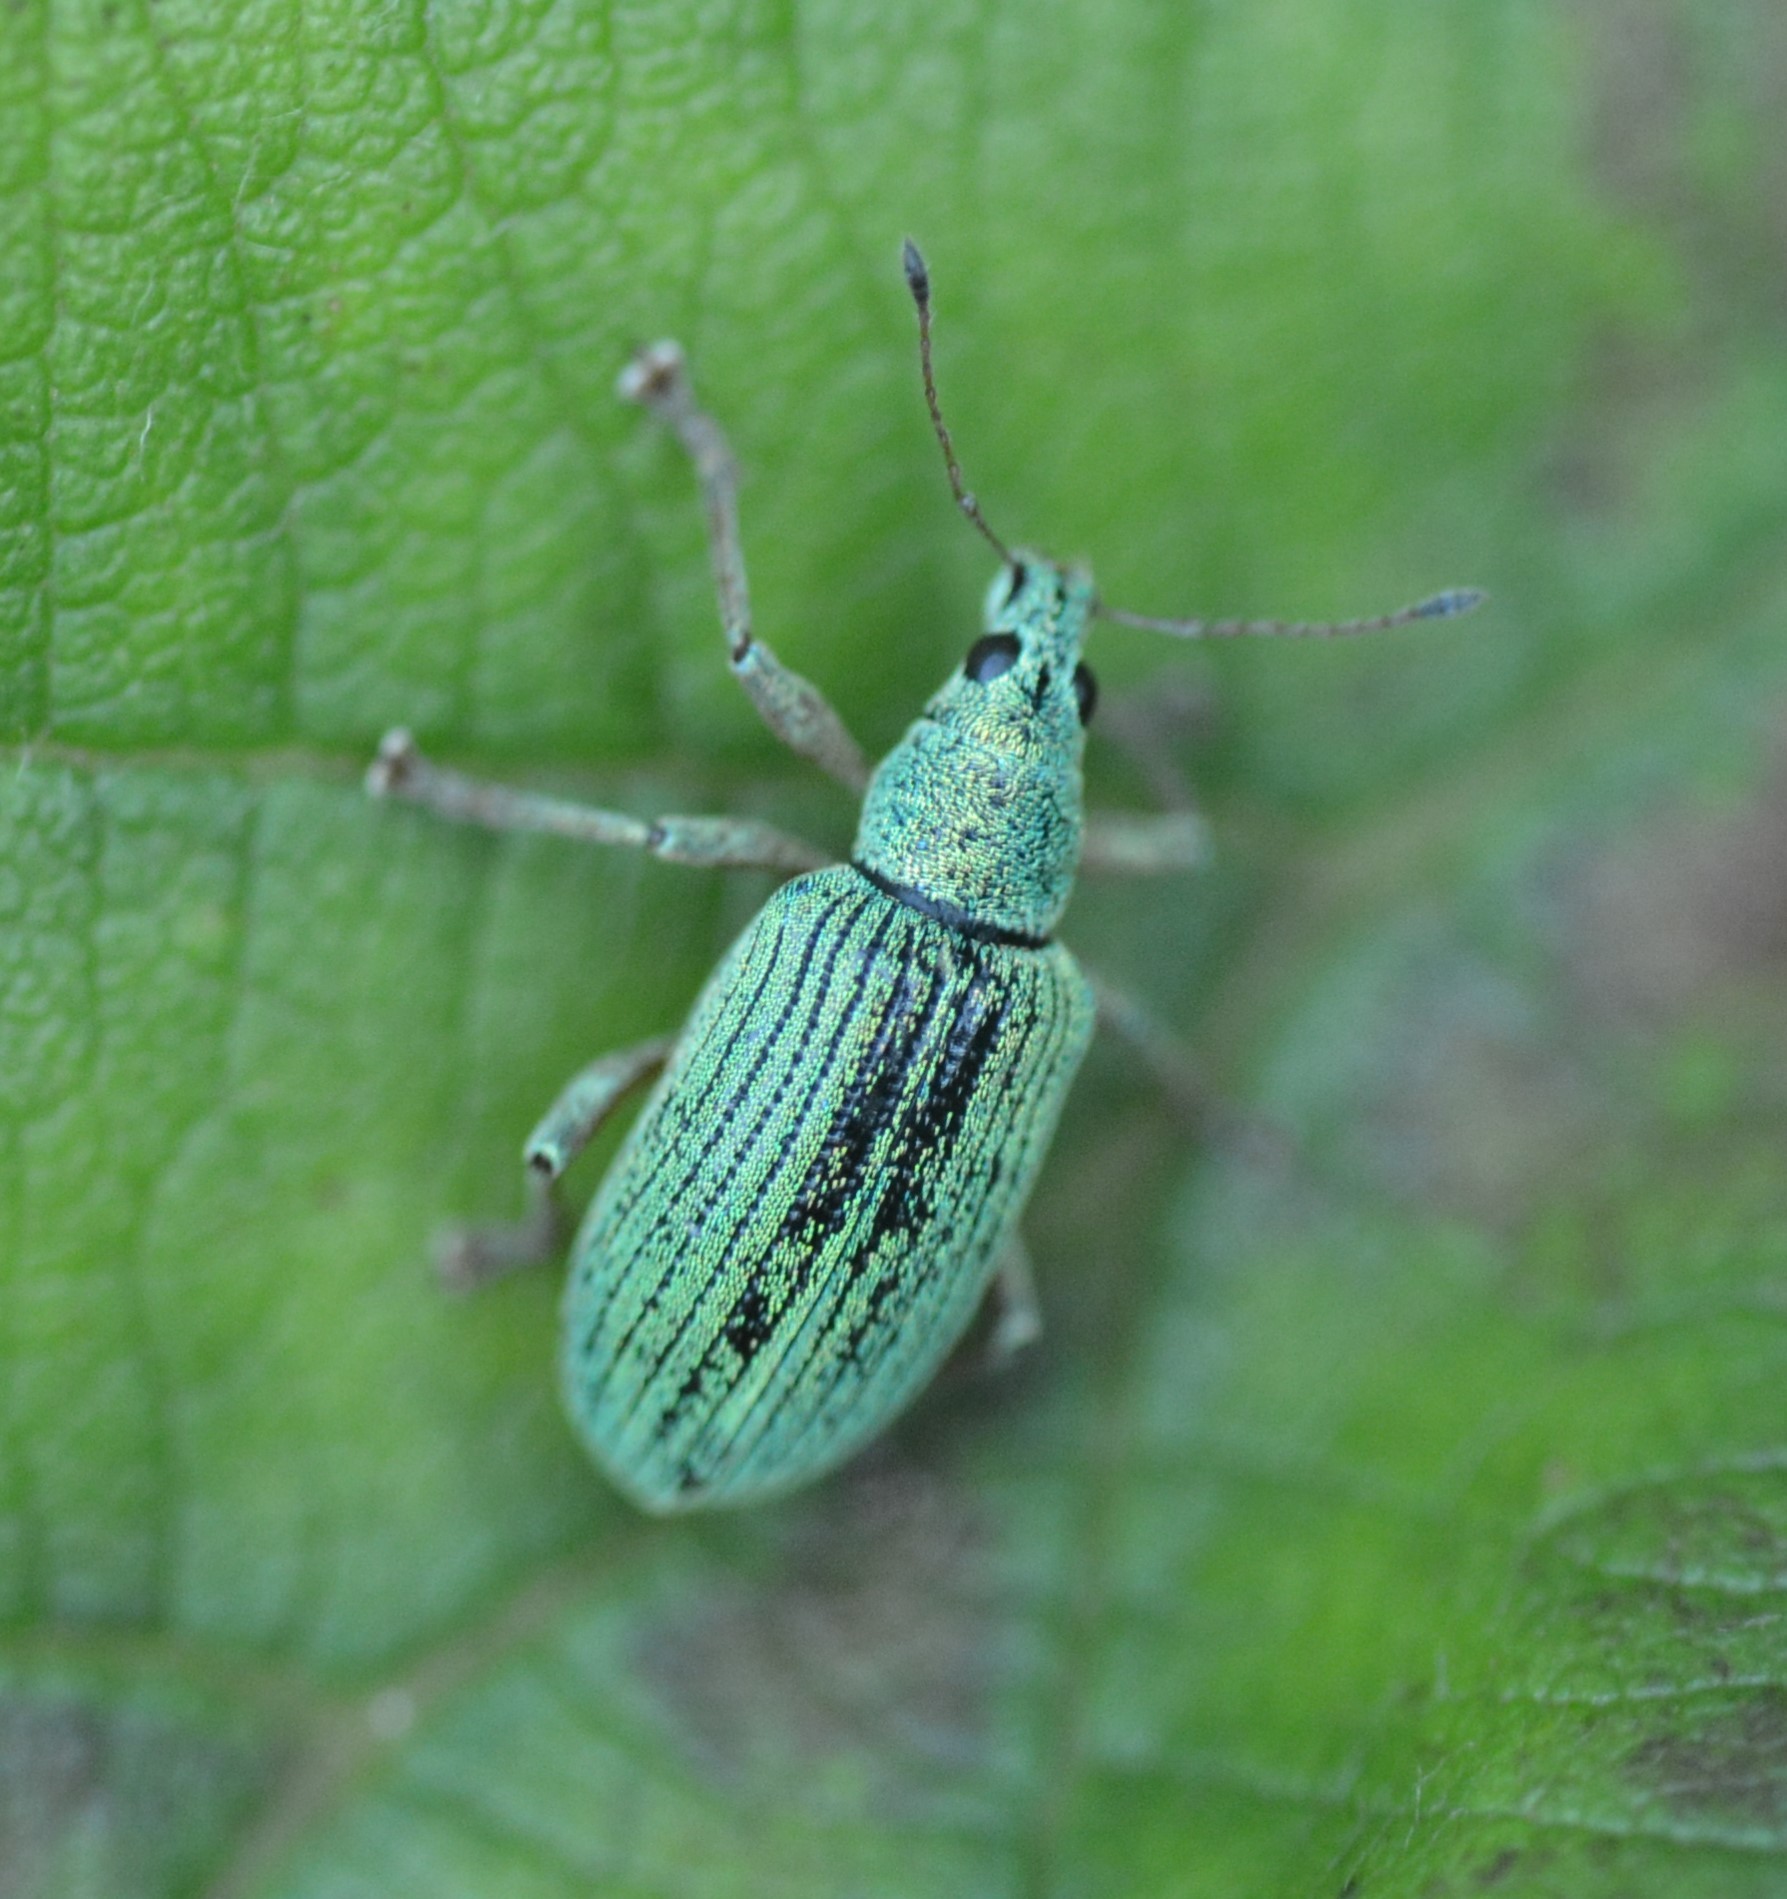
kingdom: Animalia
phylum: Arthropoda
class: Insecta
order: Coleoptera
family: Curculionidae
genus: Polydrusus
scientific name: Polydrusus formosus
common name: Weevil
